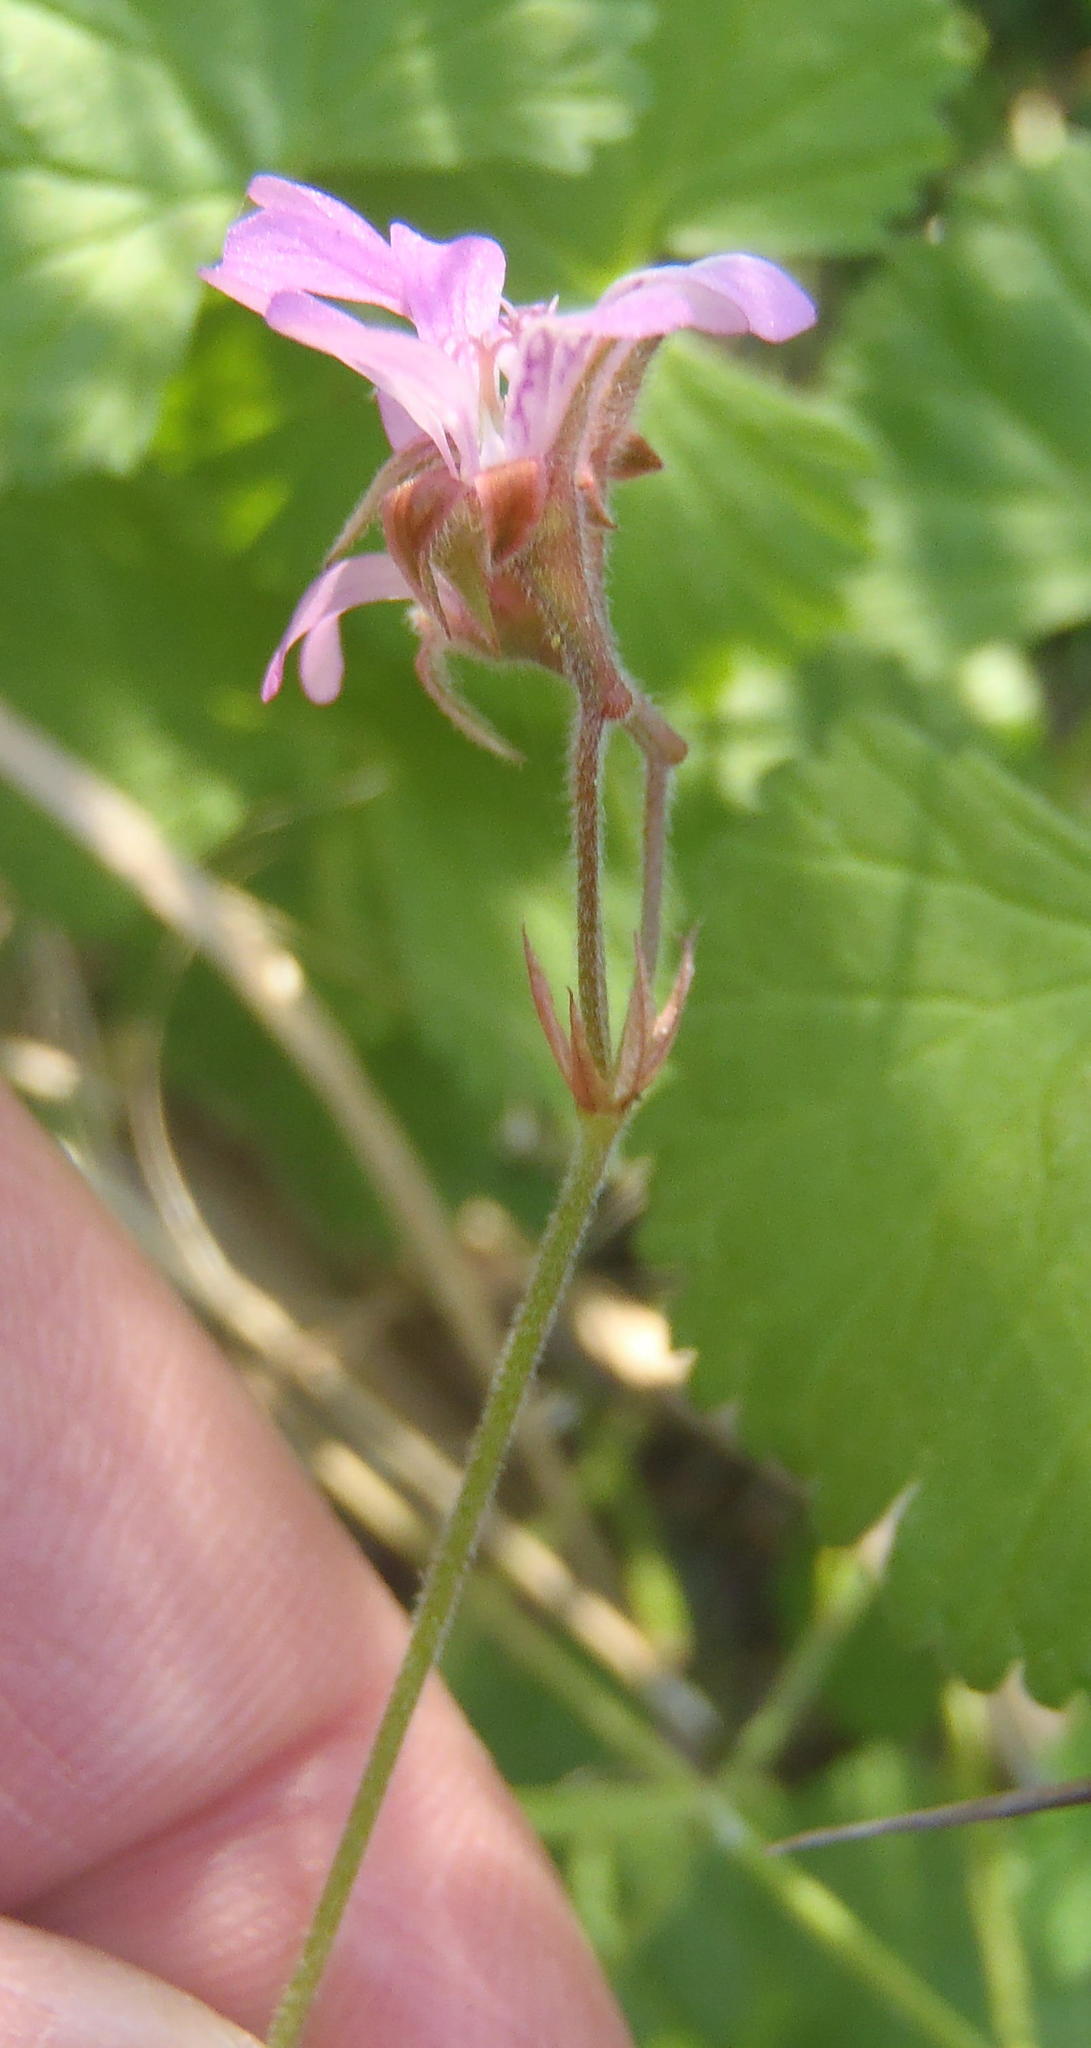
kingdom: Plantae
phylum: Tracheophyta
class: Magnoliopsida
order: Geraniales
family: Geraniaceae
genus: Pelargonium
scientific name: Pelargonium hypoleucum
